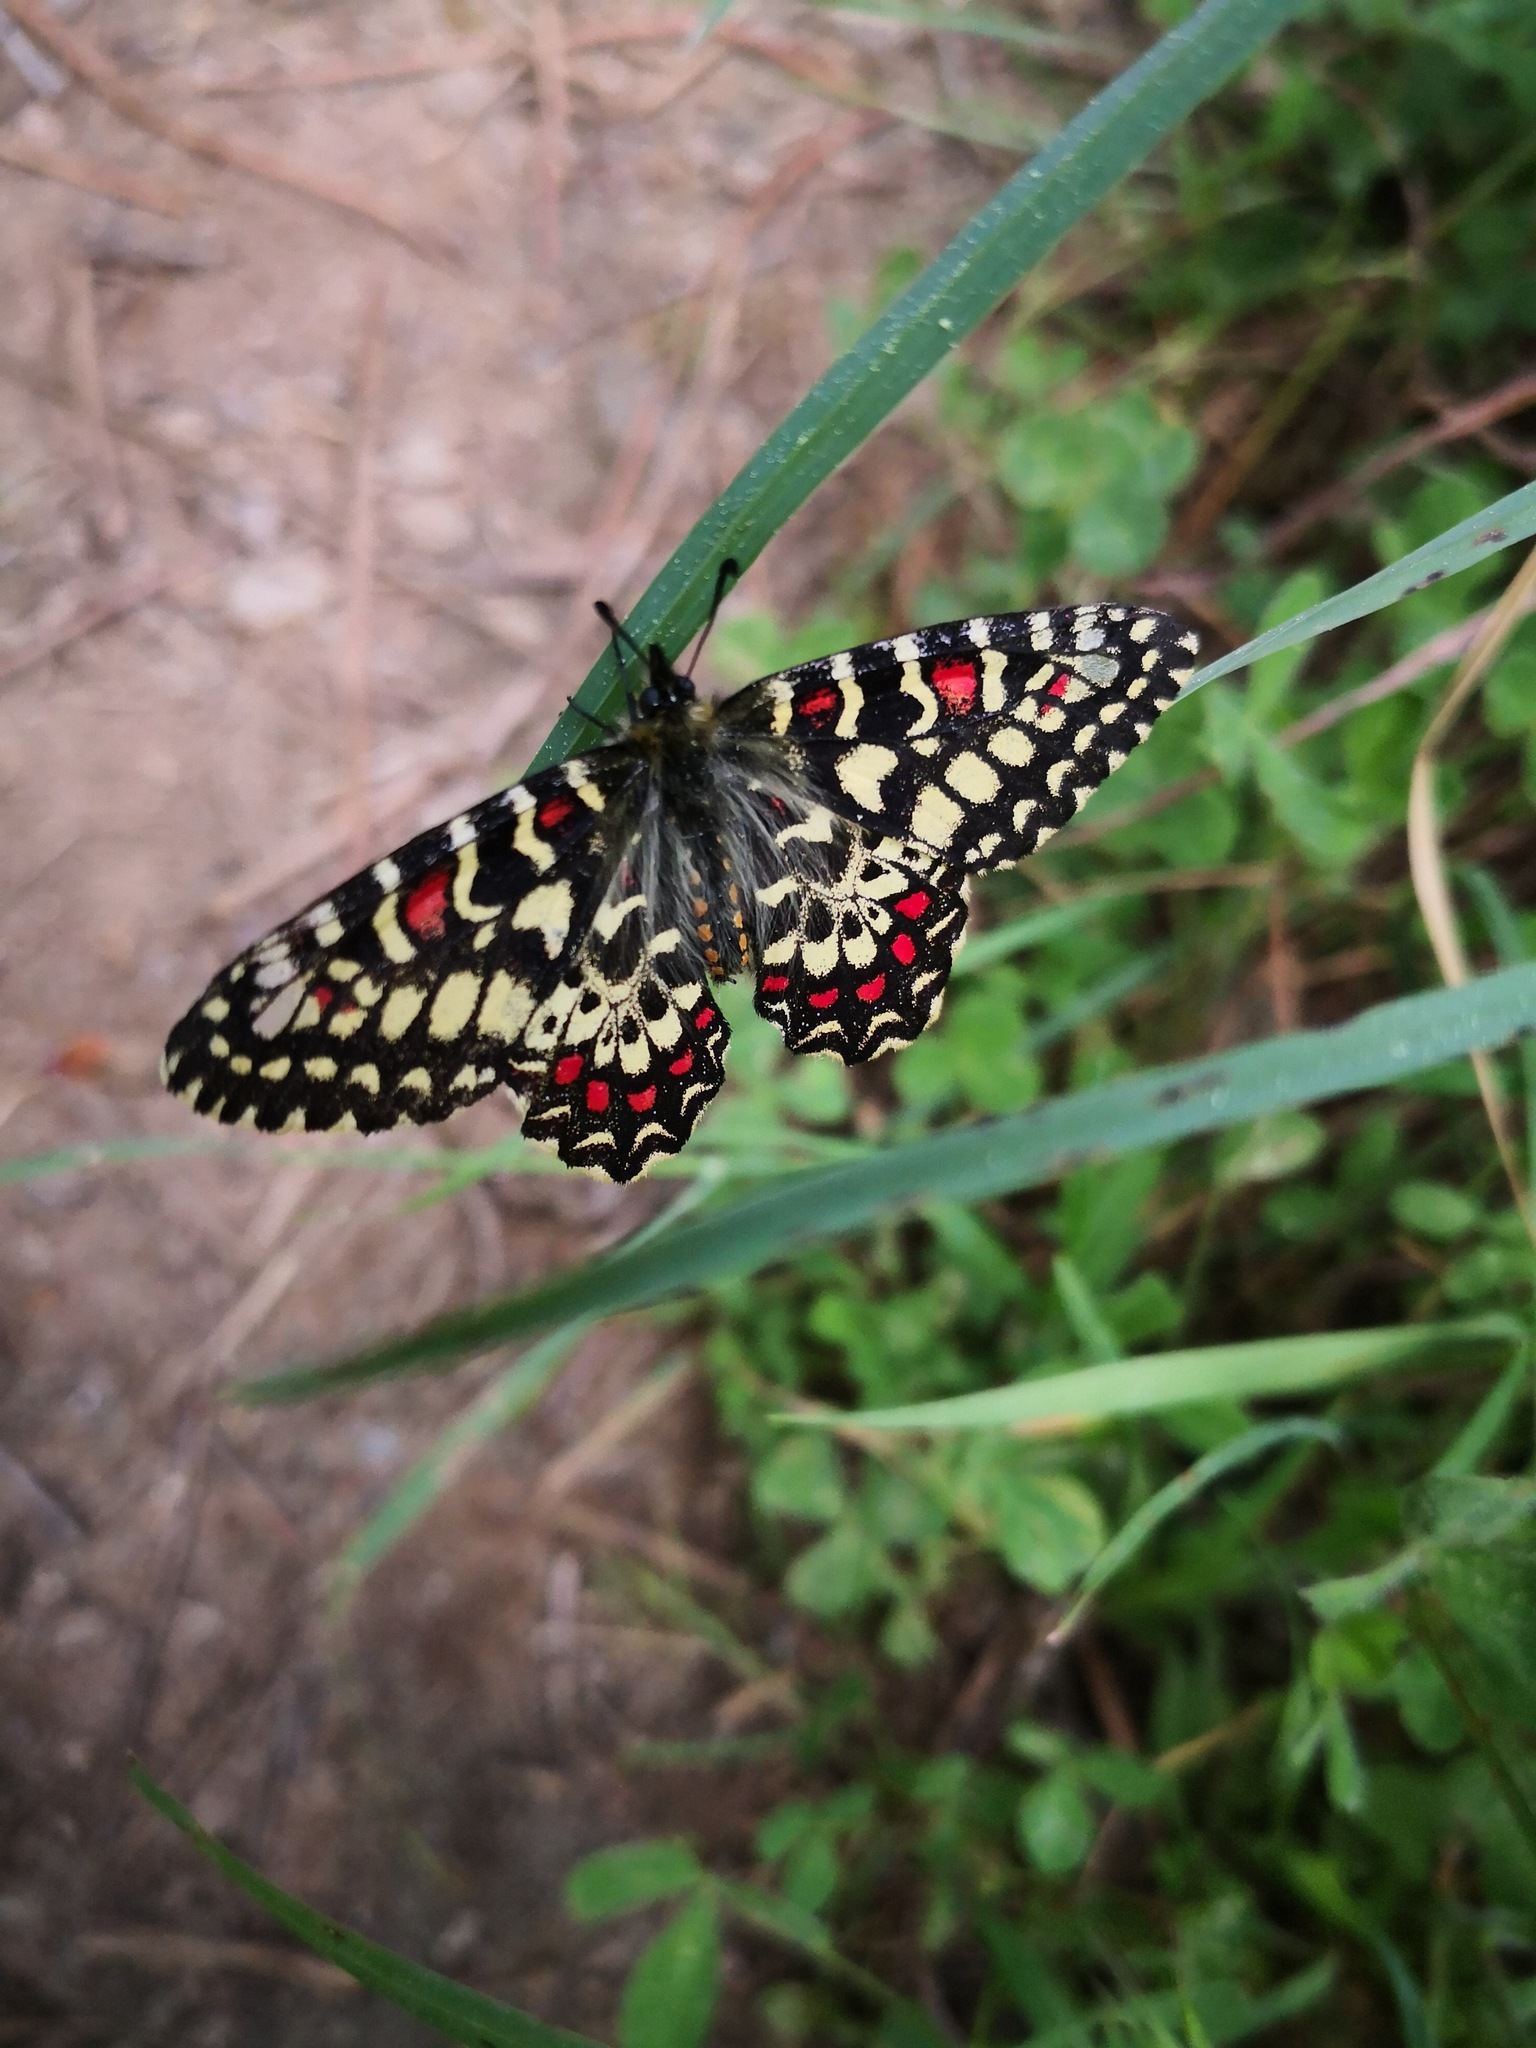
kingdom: Animalia
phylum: Arthropoda
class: Insecta
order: Lepidoptera
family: Papilionidae
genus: Zerynthia
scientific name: Zerynthia rumina
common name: Spanish festoon
